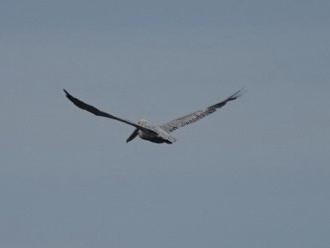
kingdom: Animalia
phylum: Chordata
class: Aves
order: Pelecaniformes
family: Pelecanidae
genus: Pelecanus
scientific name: Pelecanus occidentalis
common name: Brown pelican
